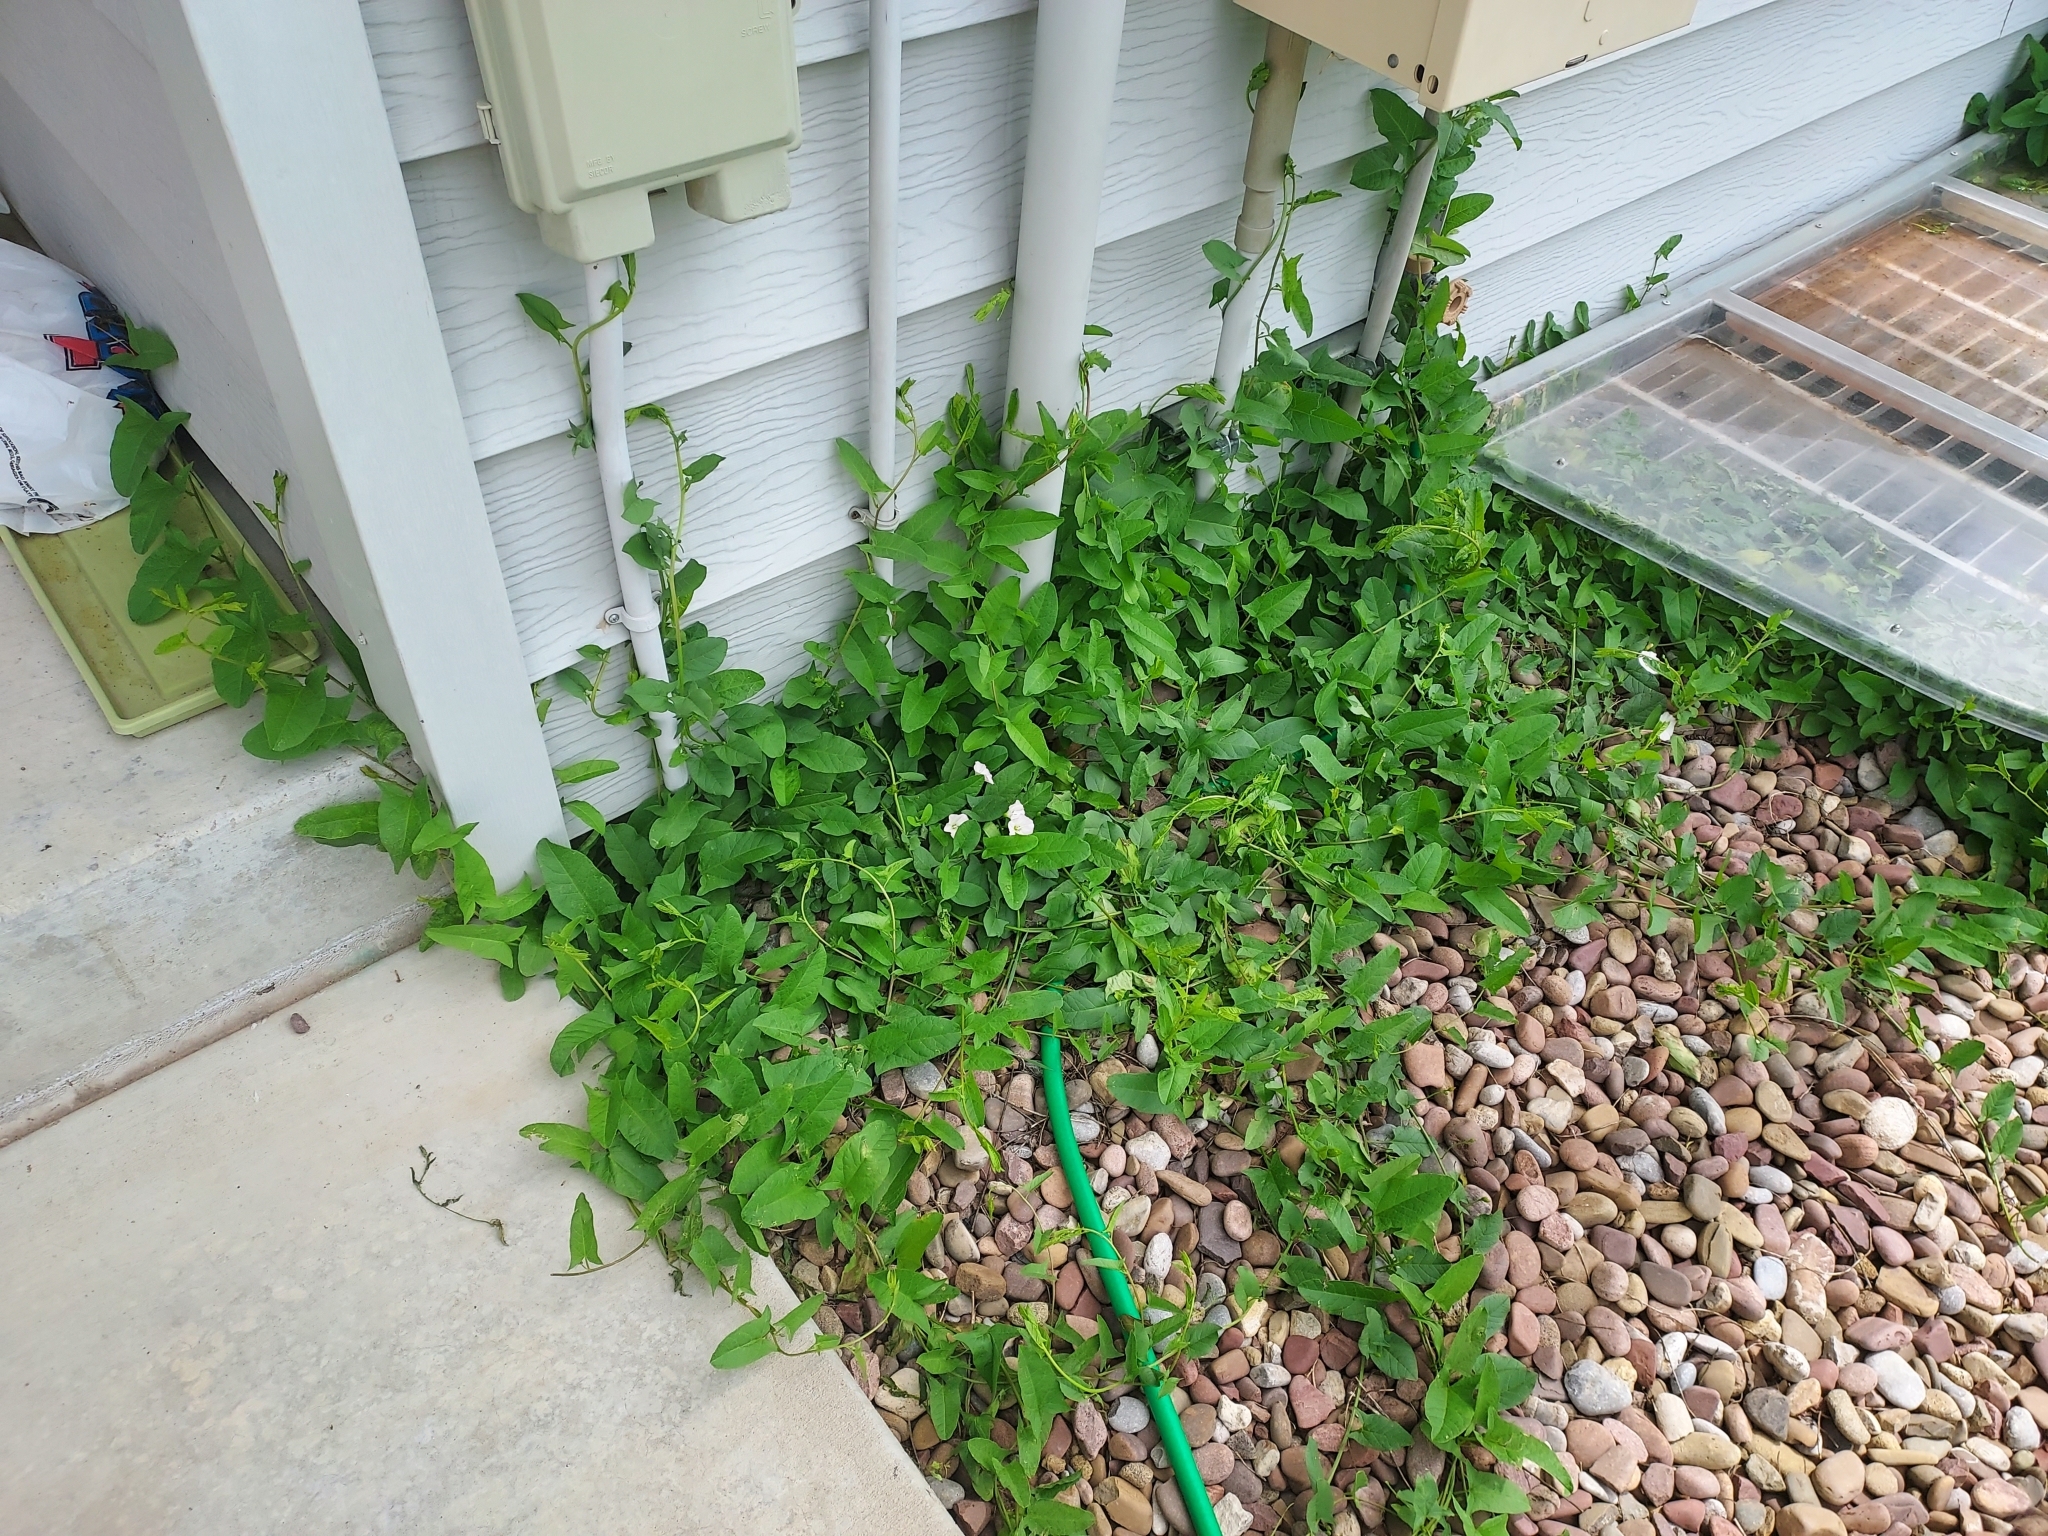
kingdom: Plantae
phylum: Tracheophyta
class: Magnoliopsida
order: Solanales
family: Convolvulaceae
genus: Convolvulus
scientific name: Convolvulus arvensis
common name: Field bindweed
